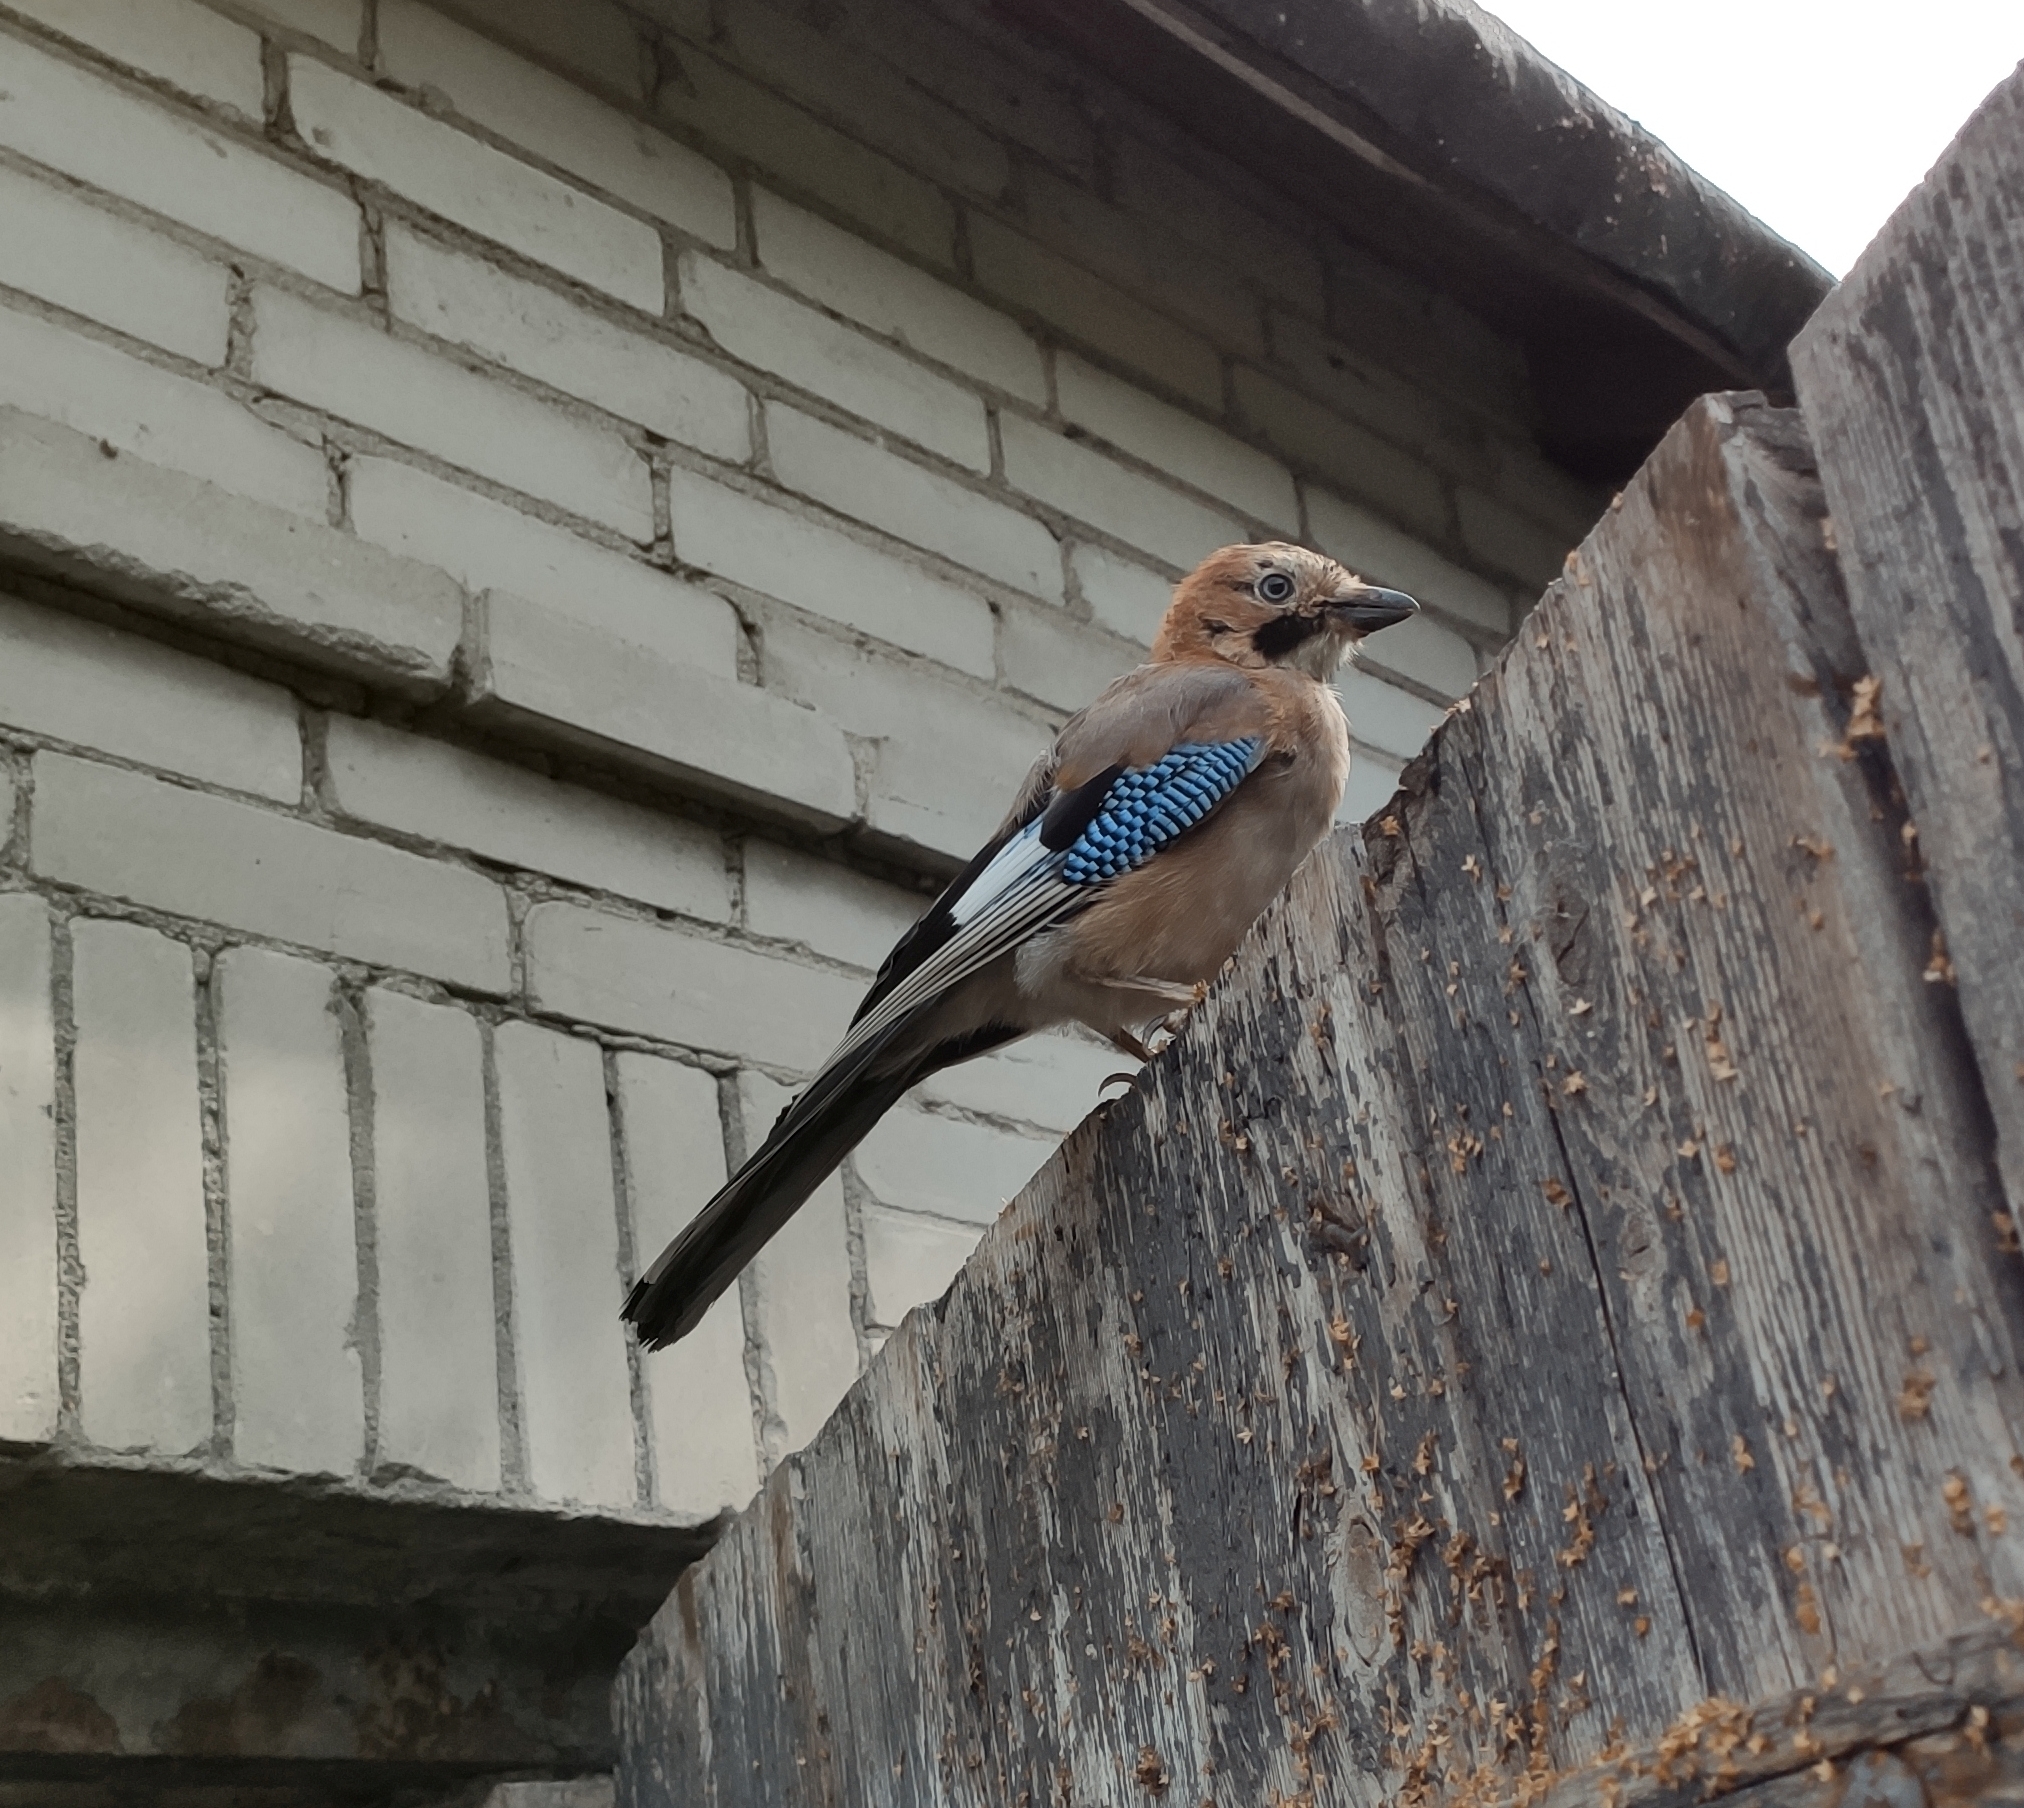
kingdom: Animalia
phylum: Chordata
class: Aves
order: Passeriformes
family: Corvidae
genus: Garrulus
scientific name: Garrulus glandarius
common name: Eurasian jay
